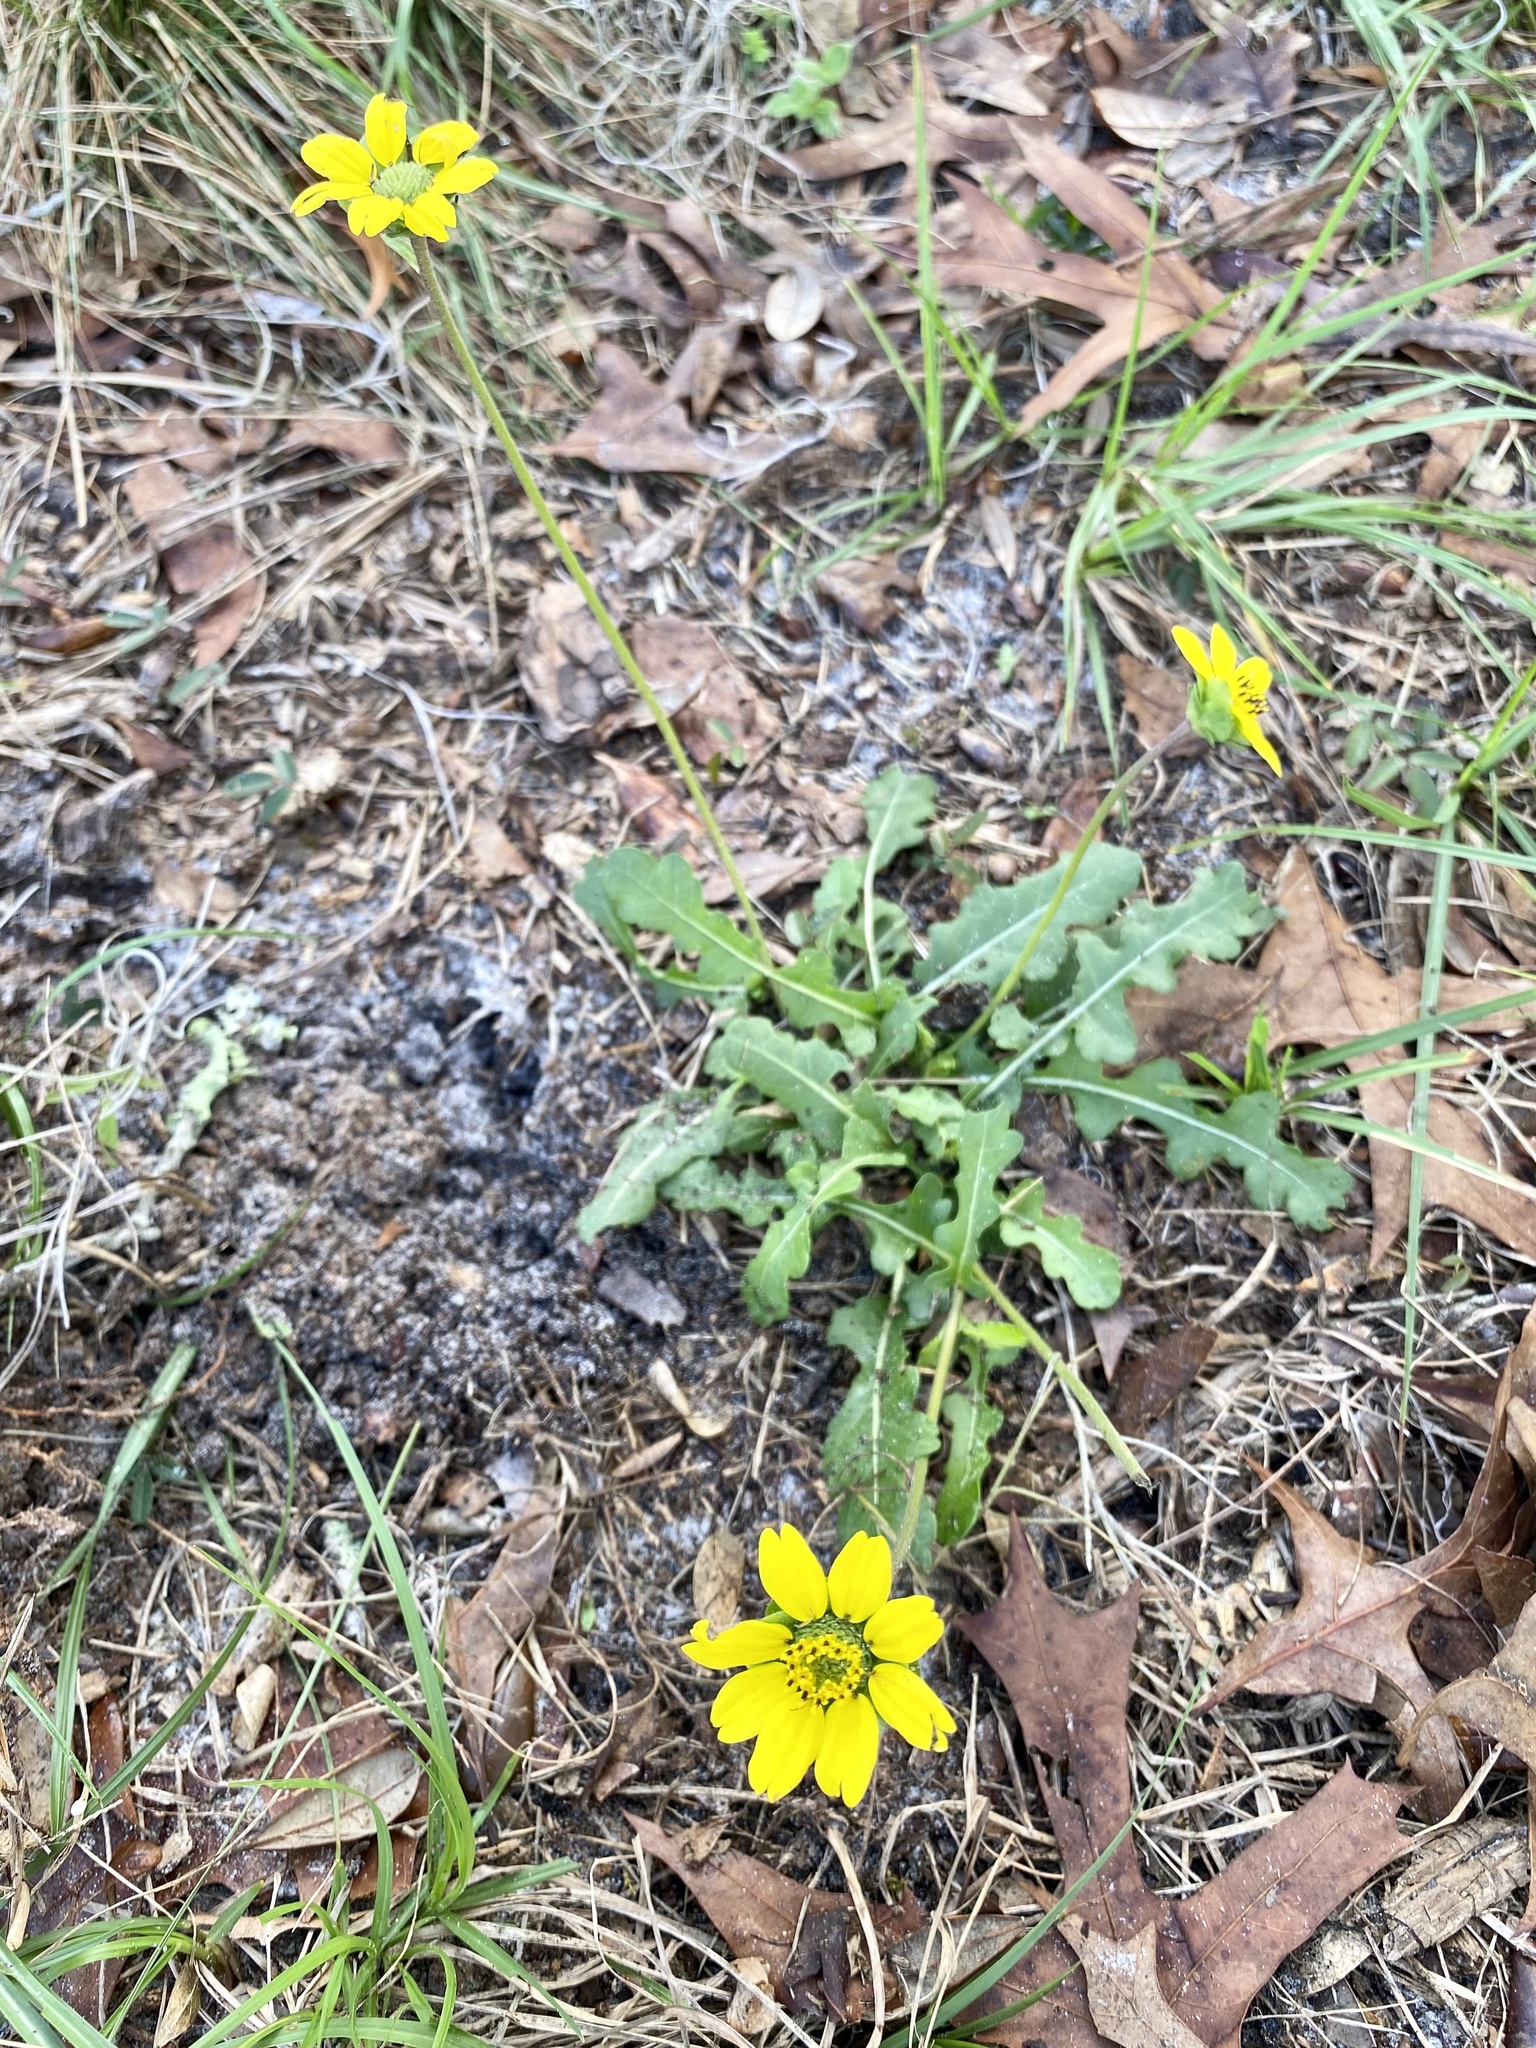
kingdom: Plantae
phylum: Tracheophyta
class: Magnoliopsida
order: Asterales
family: Asteraceae
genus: Berlandiera
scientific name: Berlandiera subacaulis
